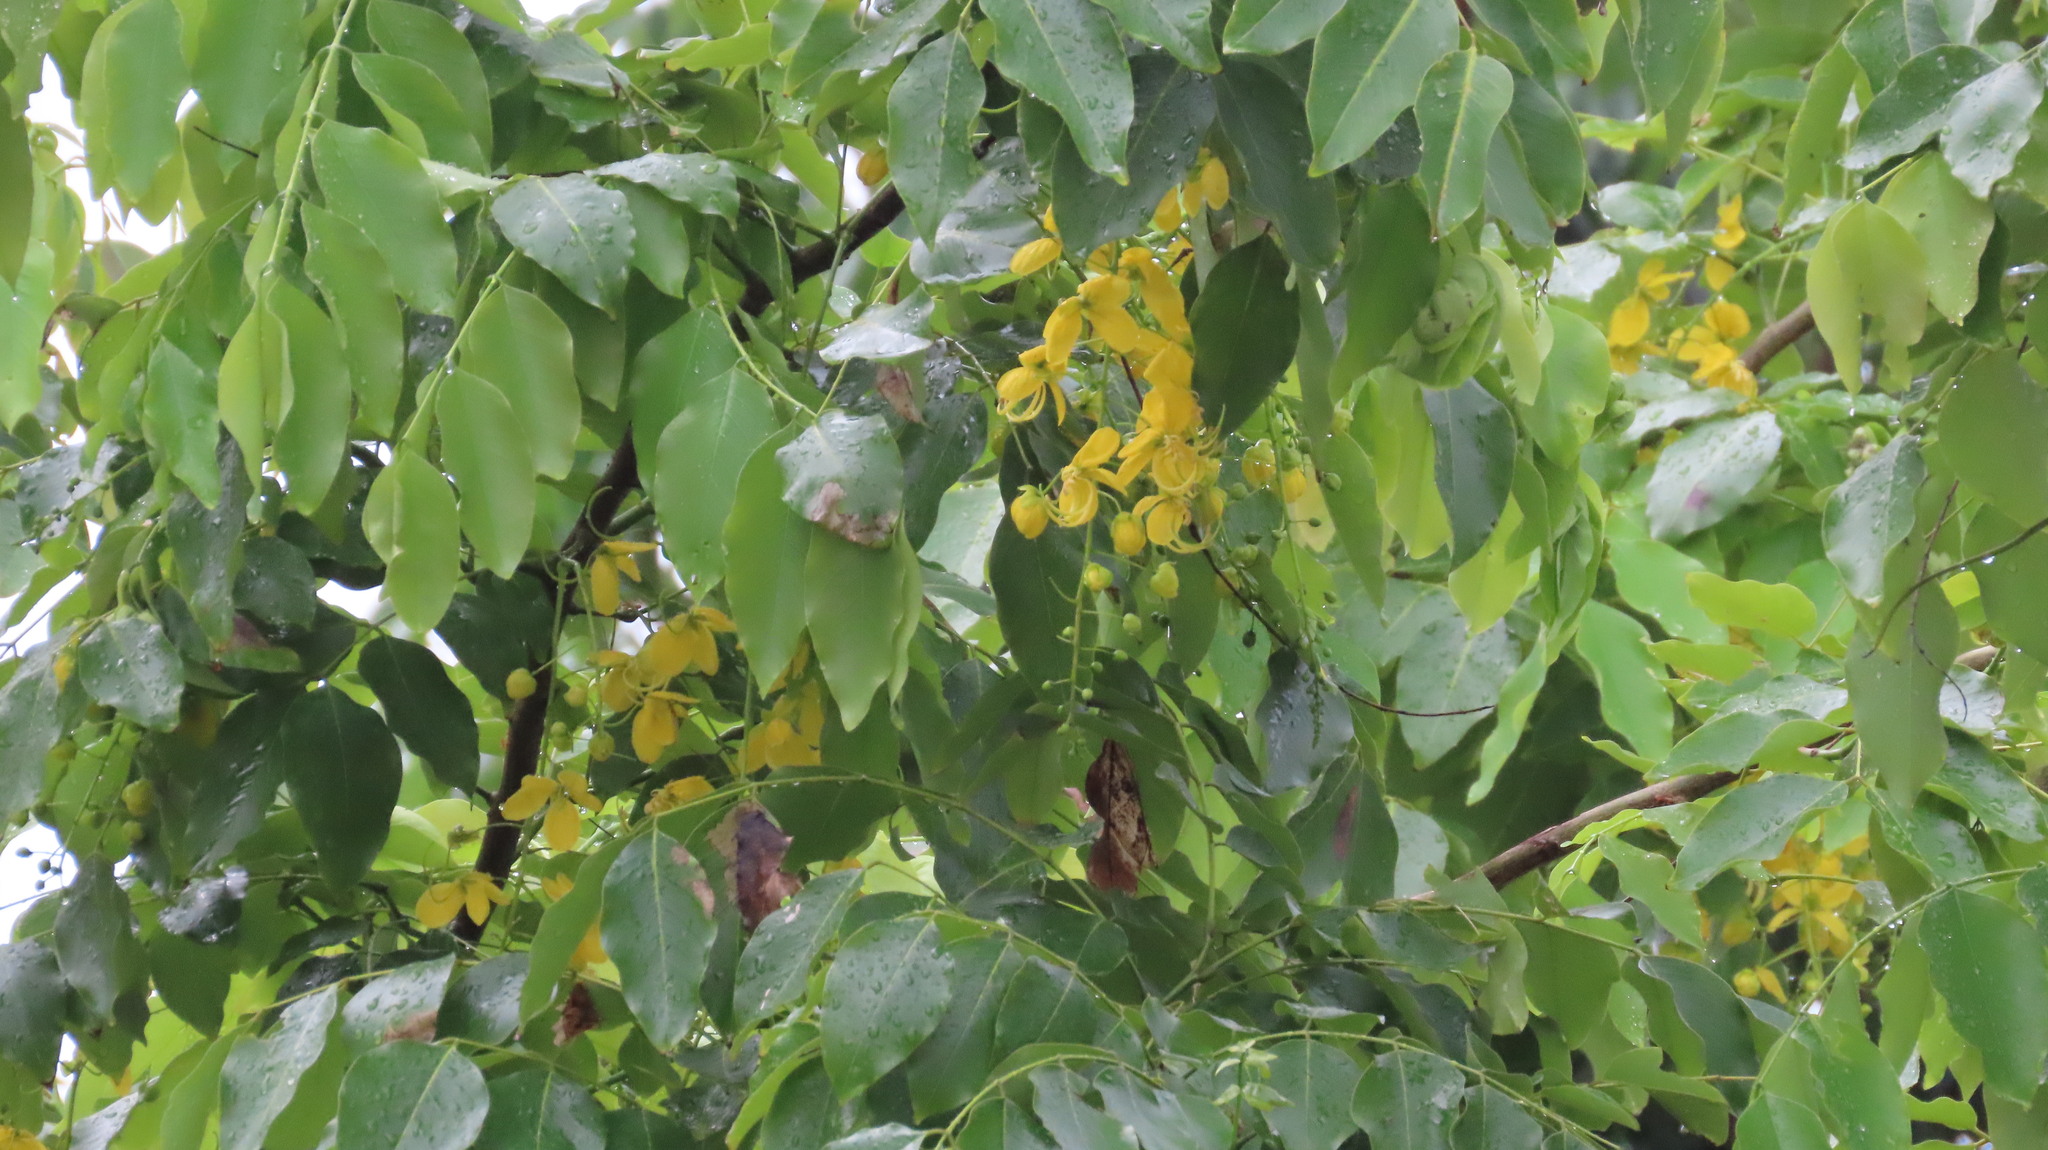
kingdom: Plantae
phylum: Tracheophyta
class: Magnoliopsida
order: Fabales
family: Fabaceae
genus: Cassia
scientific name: Cassia fistula
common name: Golden shower
